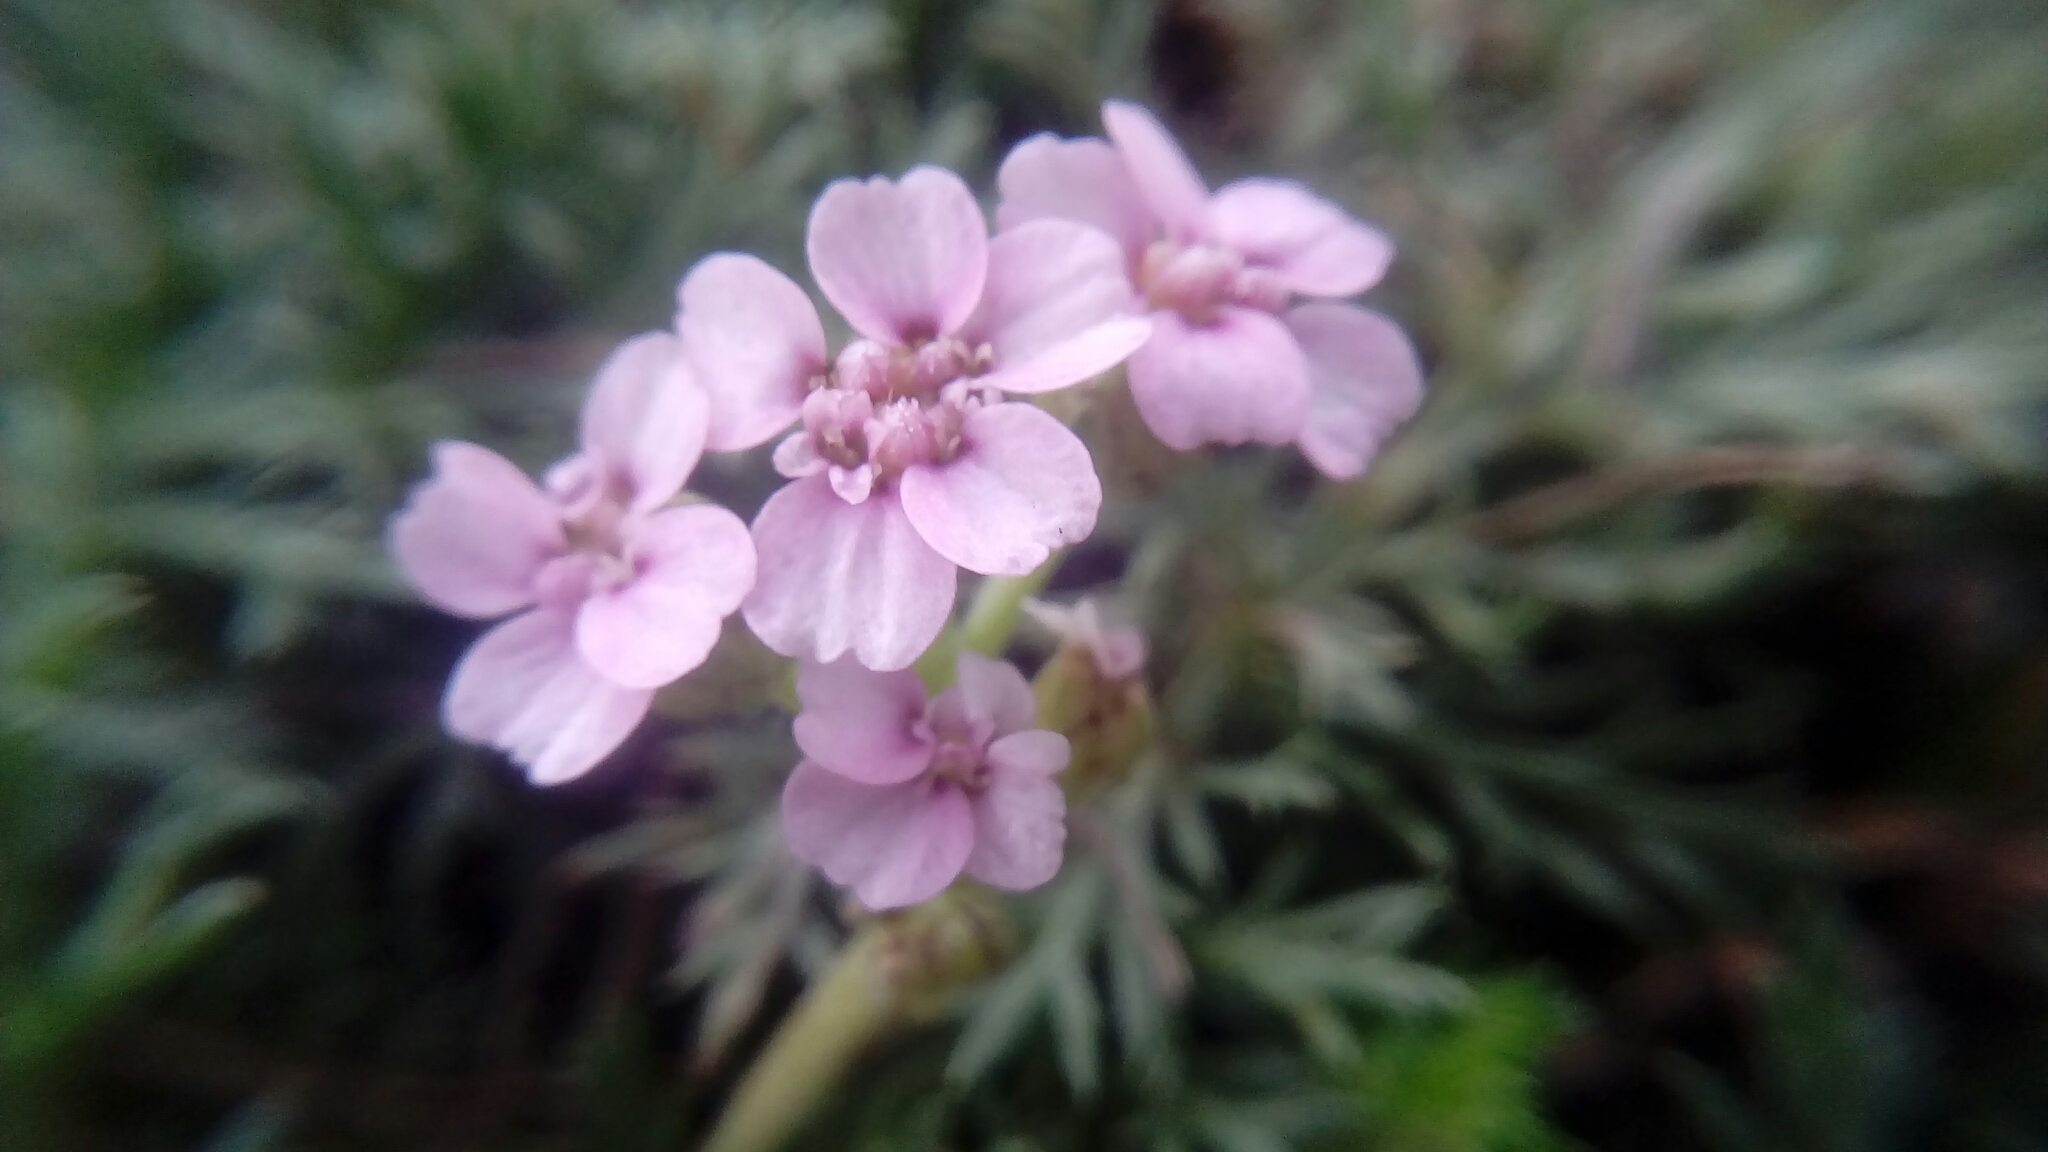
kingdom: Plantae
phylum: Tracheophyta
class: Magnoliopsida
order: Asterales
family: Asteraceae
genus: Achillea
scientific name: Achillea millefolium
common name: Yarrow
